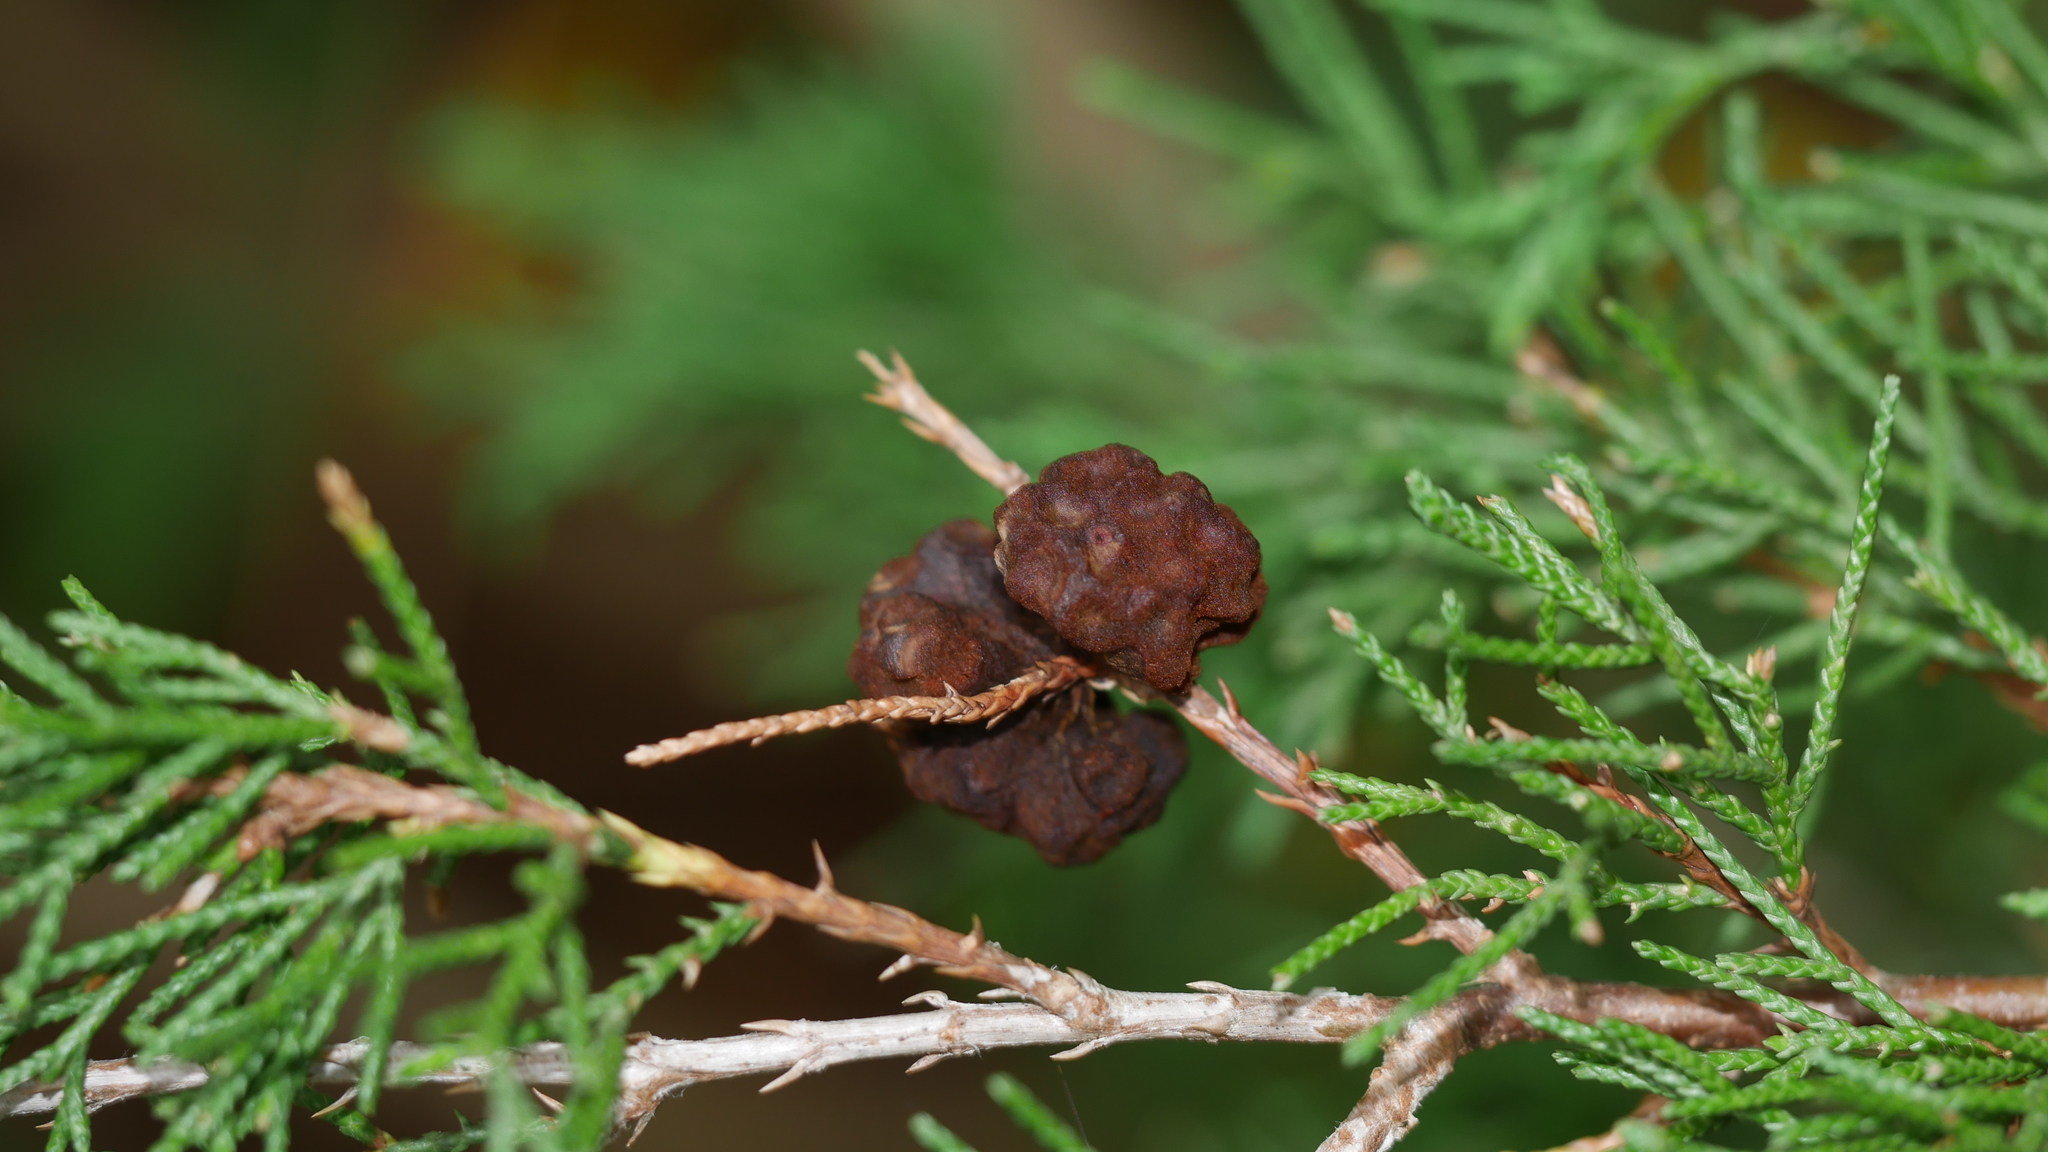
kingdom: Fungi
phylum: Basidiomycota
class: Pucciniomycetes
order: Pucciniales
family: Gymnosporangiaceae
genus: Gymnosporangium
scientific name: Gymnosporangium juniperi-virginianae
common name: Juniper-apple rust
